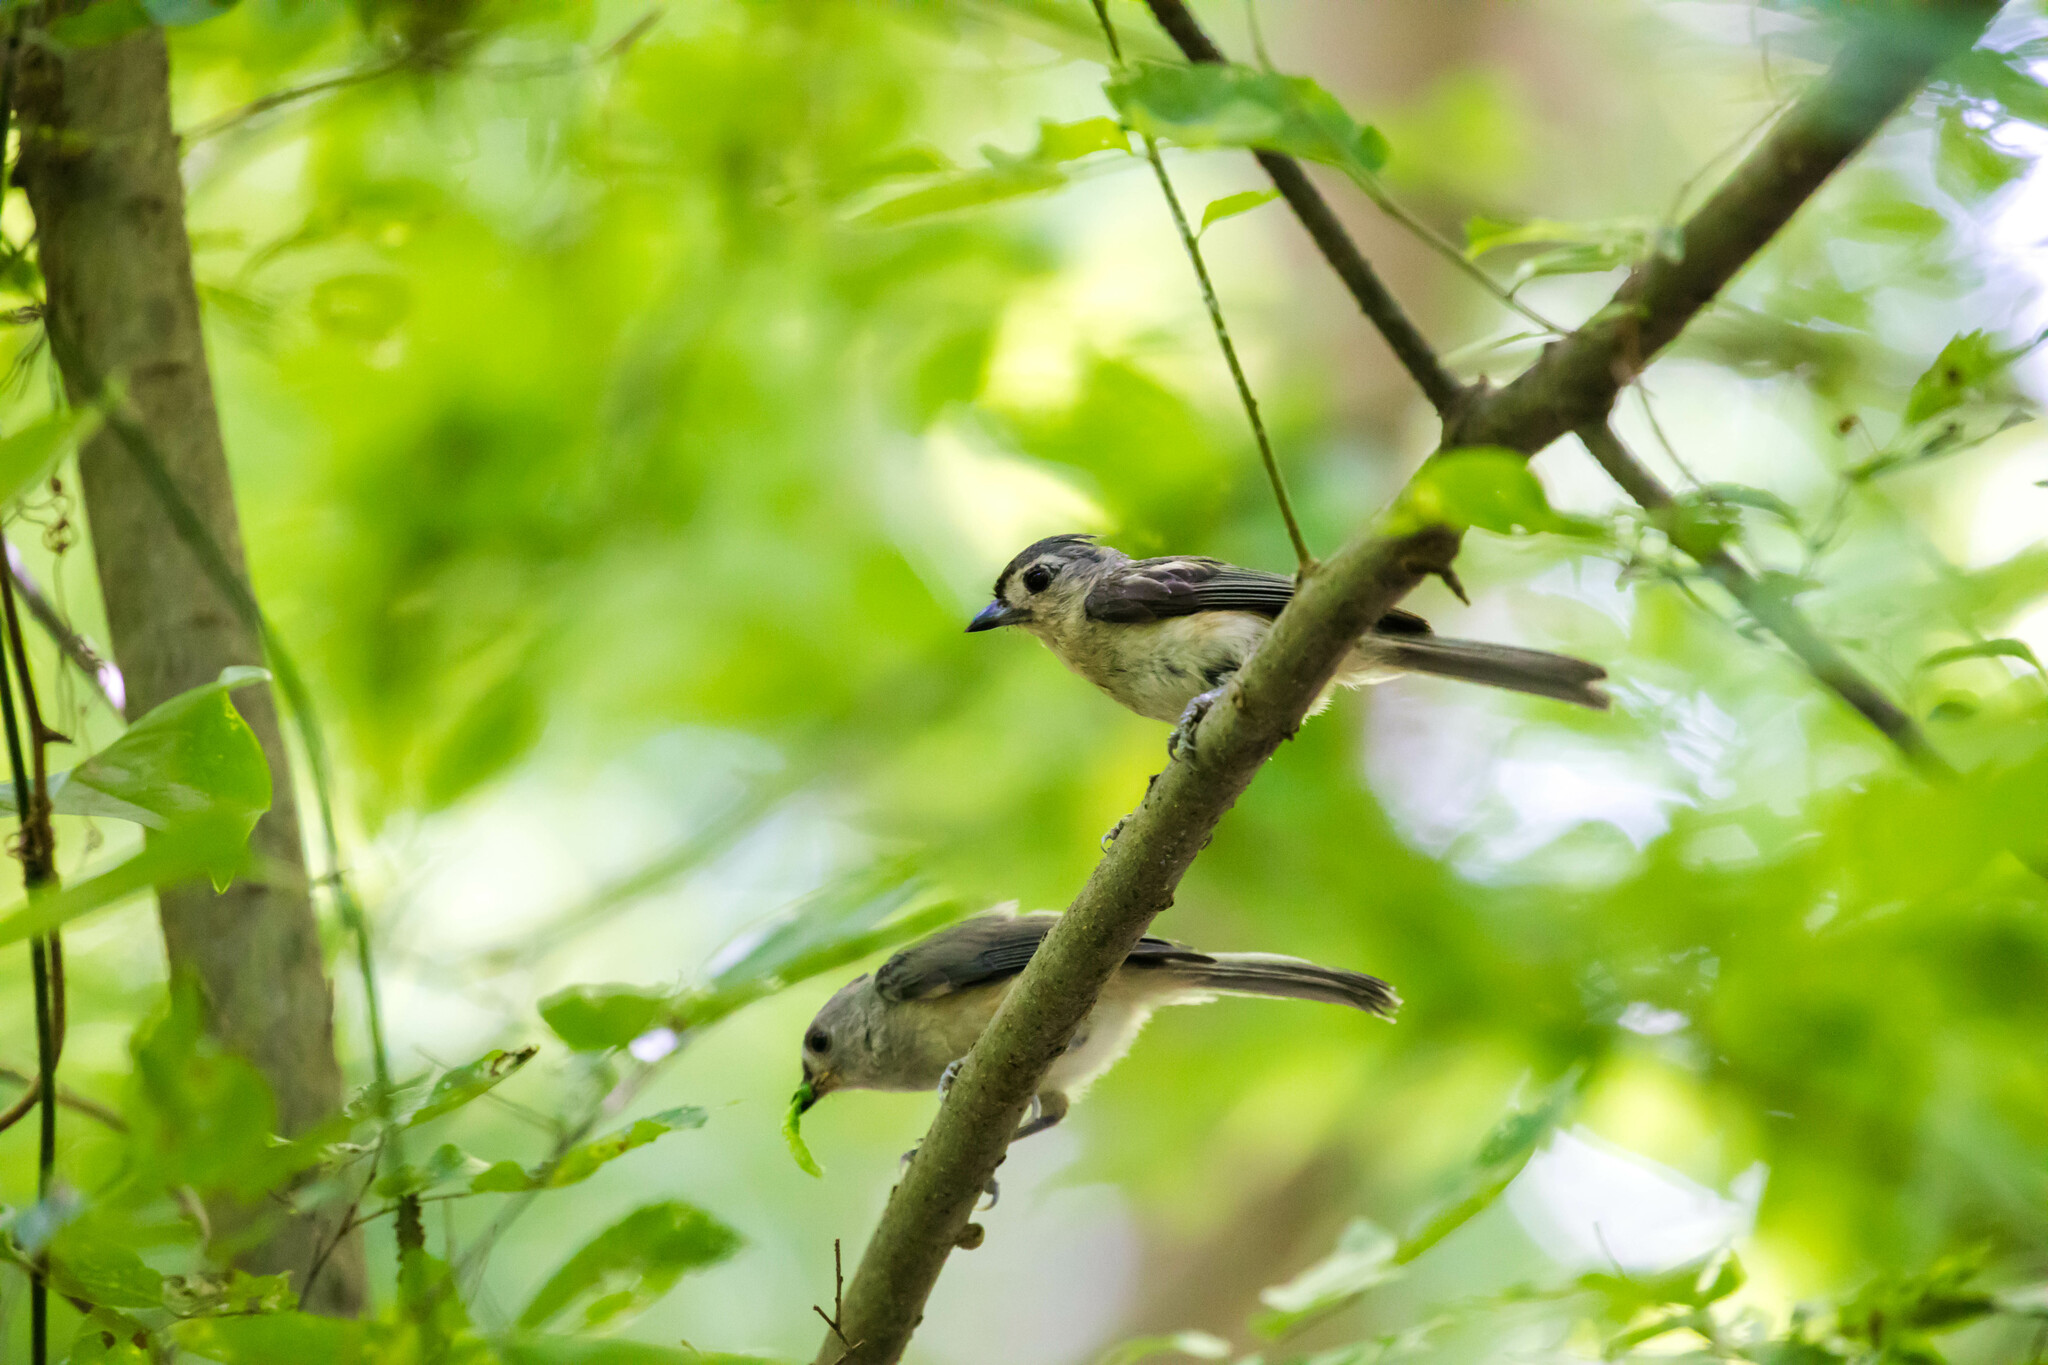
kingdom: Animalia
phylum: Chordata
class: Aves
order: Passeriformes
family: Paridae
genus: Baeolophus
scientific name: Baeolophus bicolor
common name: Tufted titmouse
